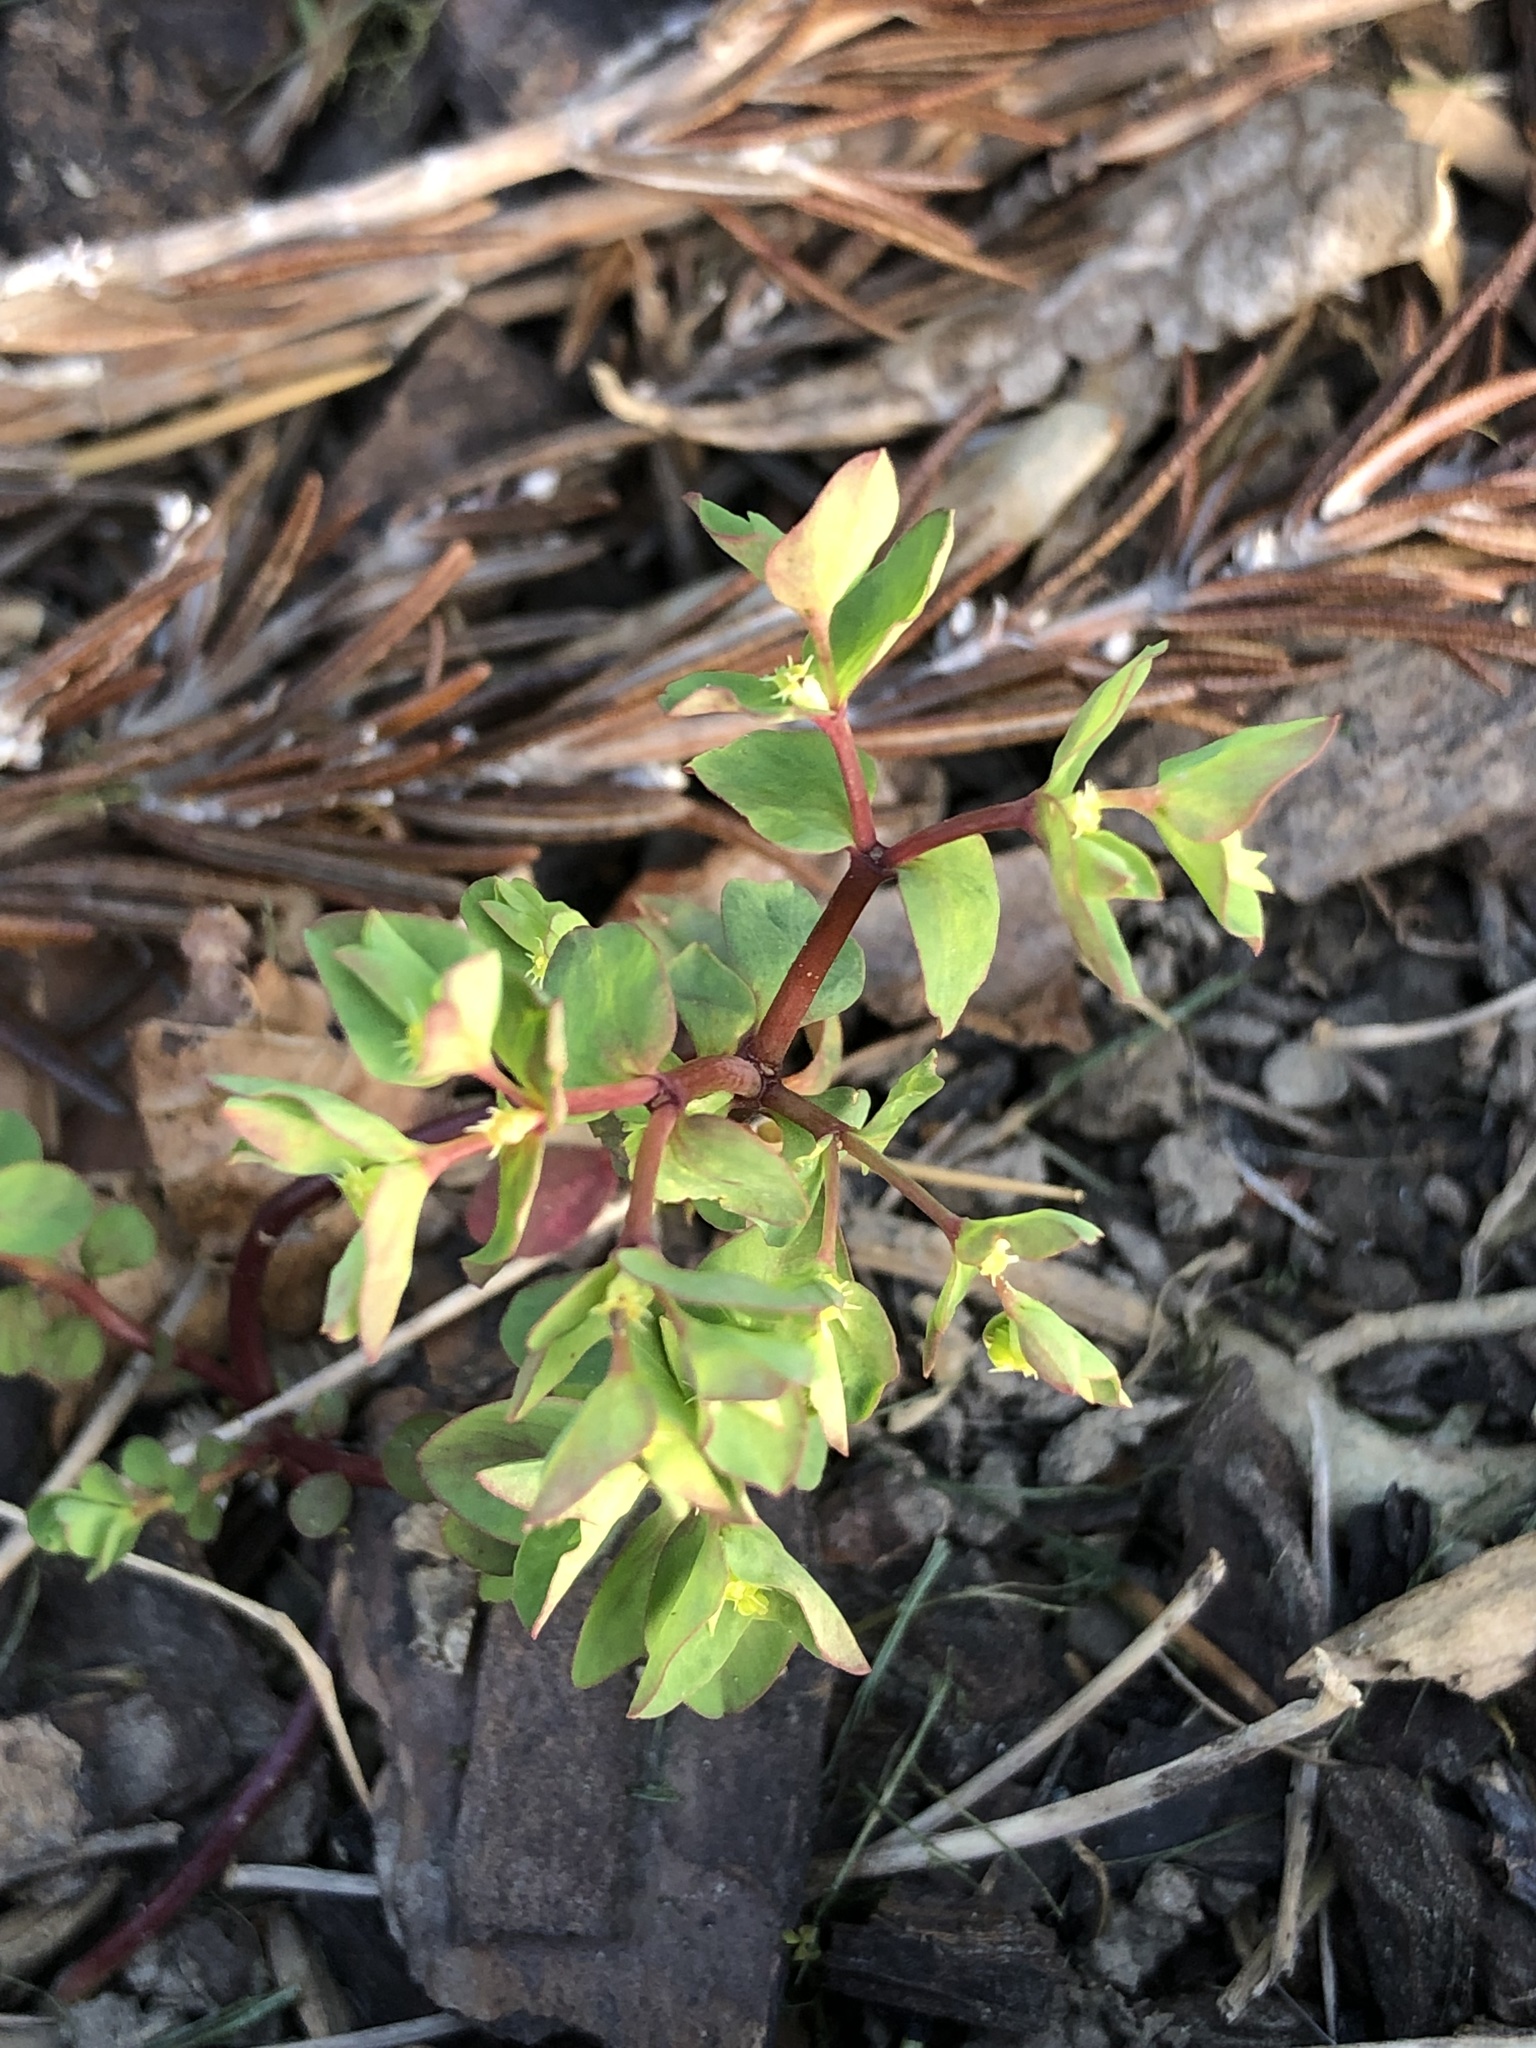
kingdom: Plantae
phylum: Tracheophyta
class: Magnoliopsida
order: Malpighiales
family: Euphorbiaceae
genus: Euphorbia
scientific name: Euphorbia peplus
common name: Petty spurge
